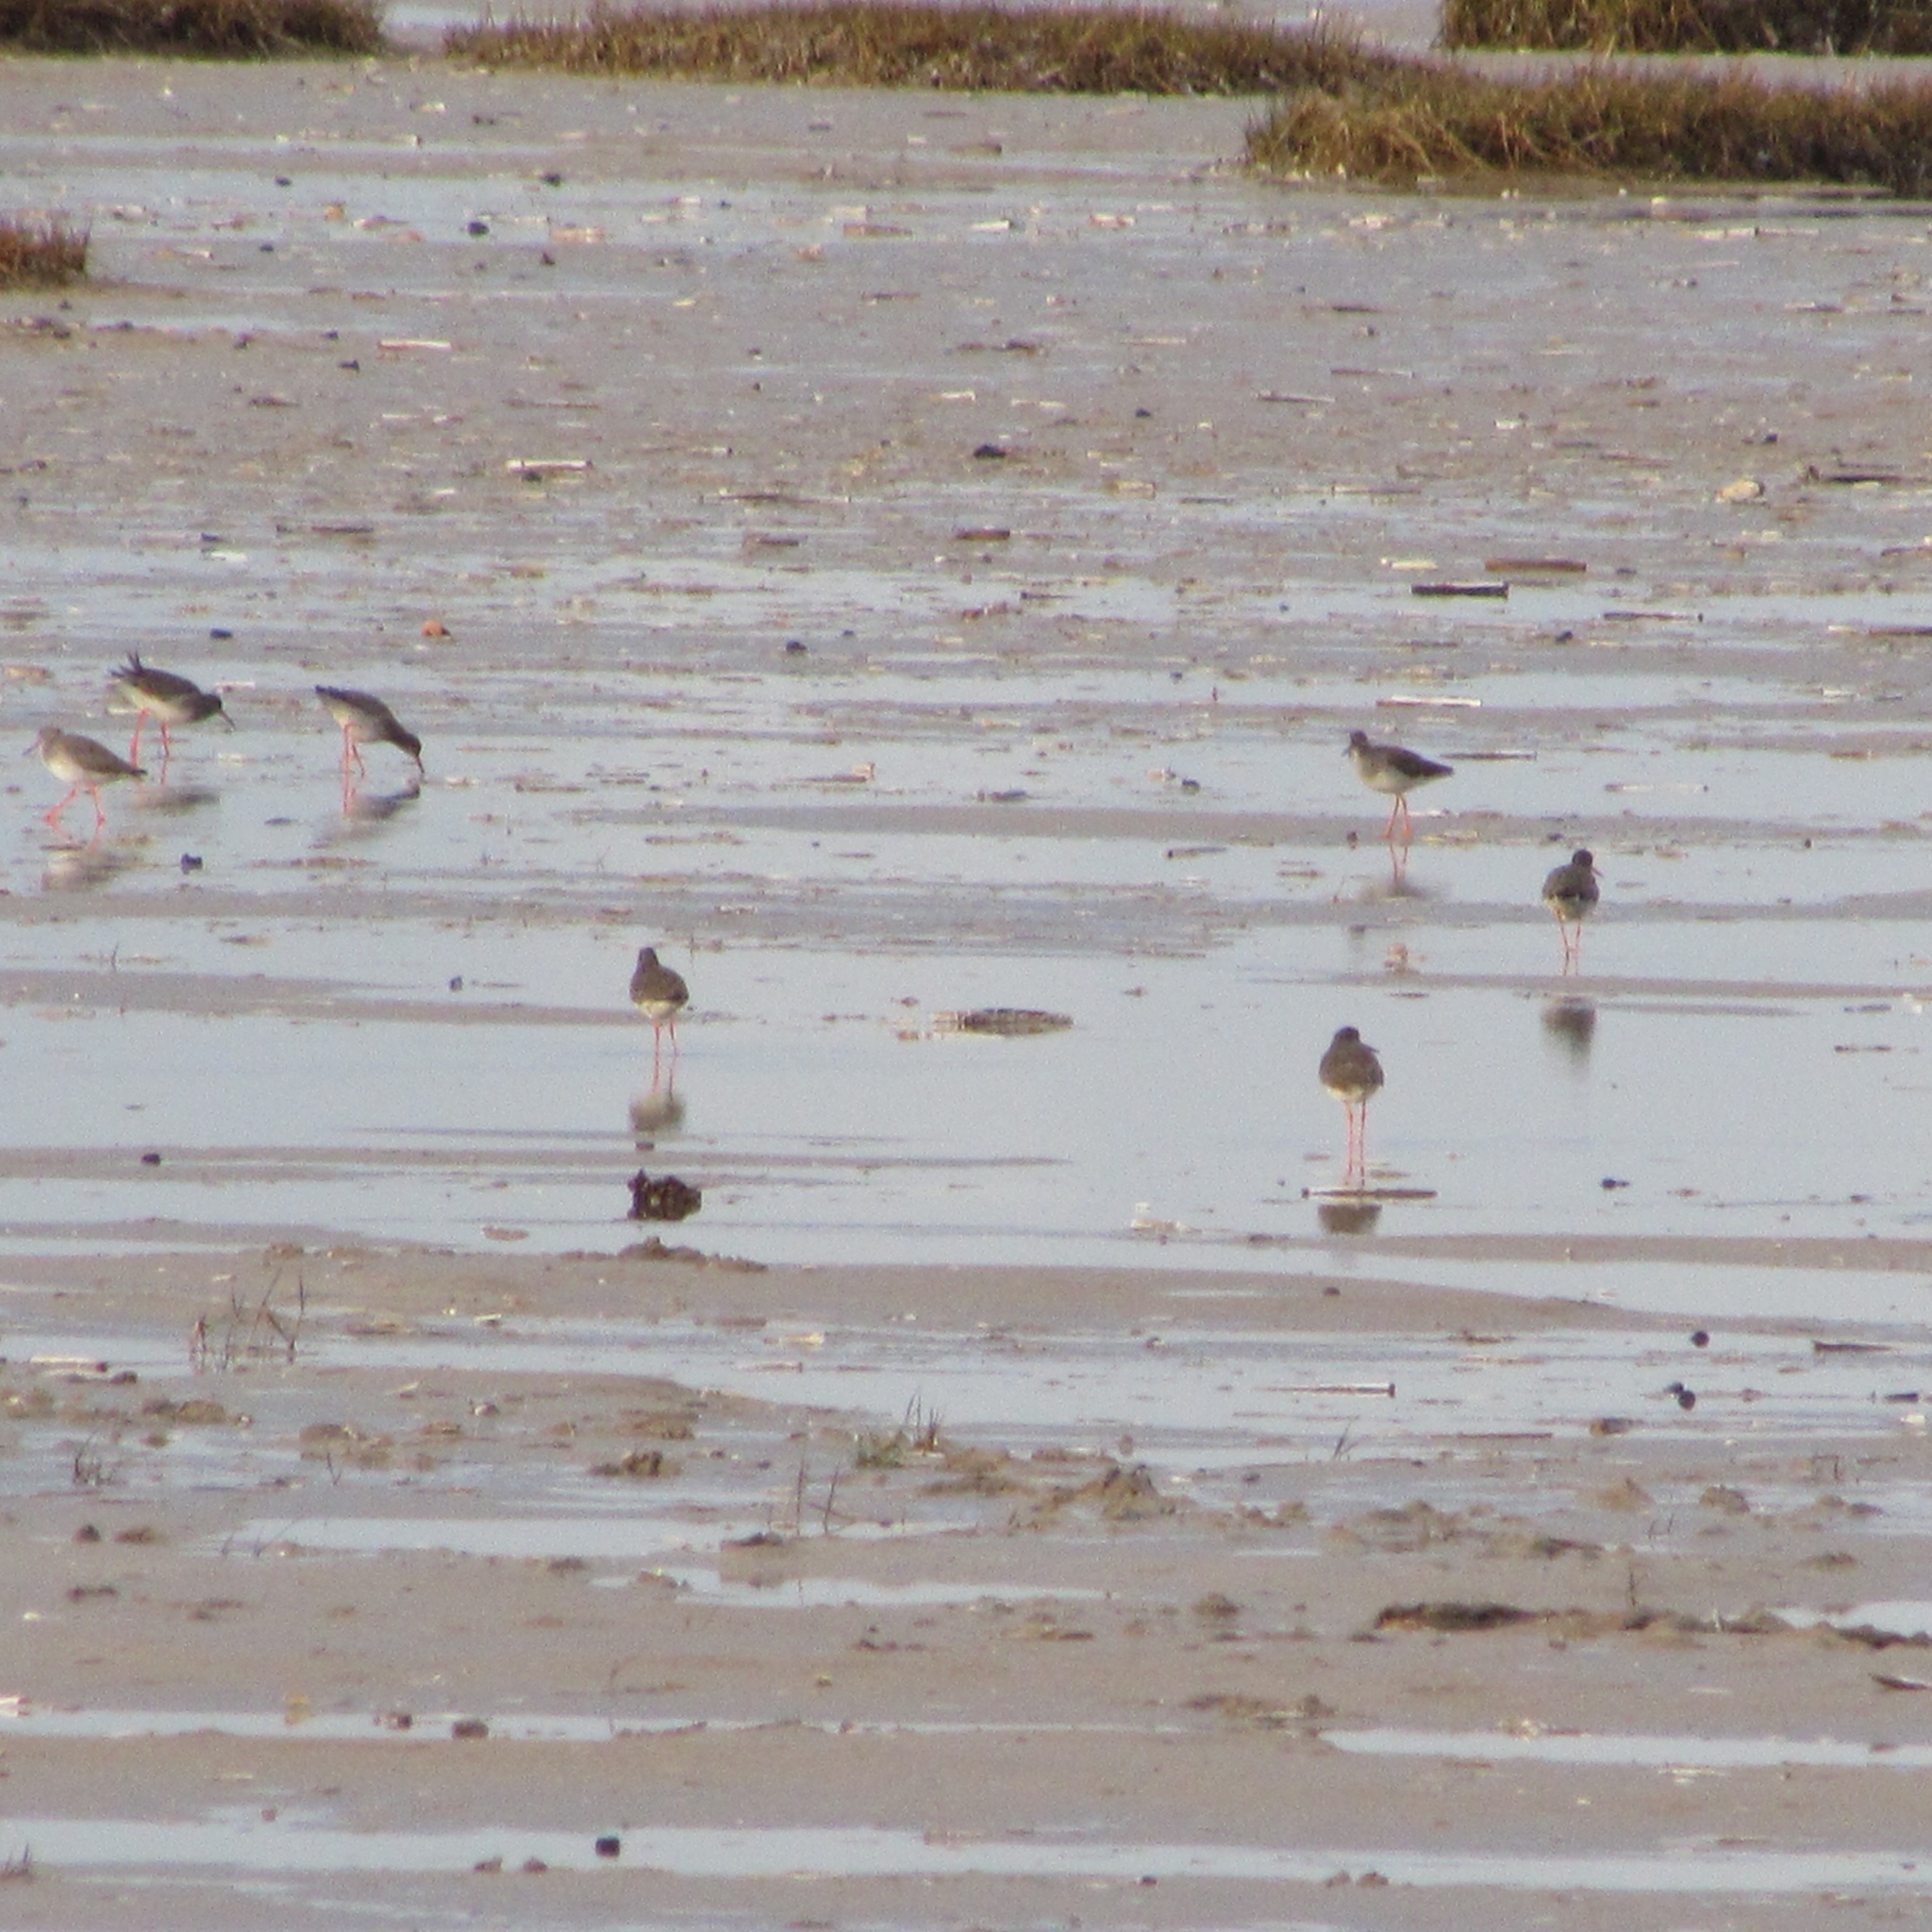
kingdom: Animalia
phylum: Chordata
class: Aves
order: Charadriiformes
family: Scolopacidae
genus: Tringa
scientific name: Tringa totanus
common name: Common redshank
